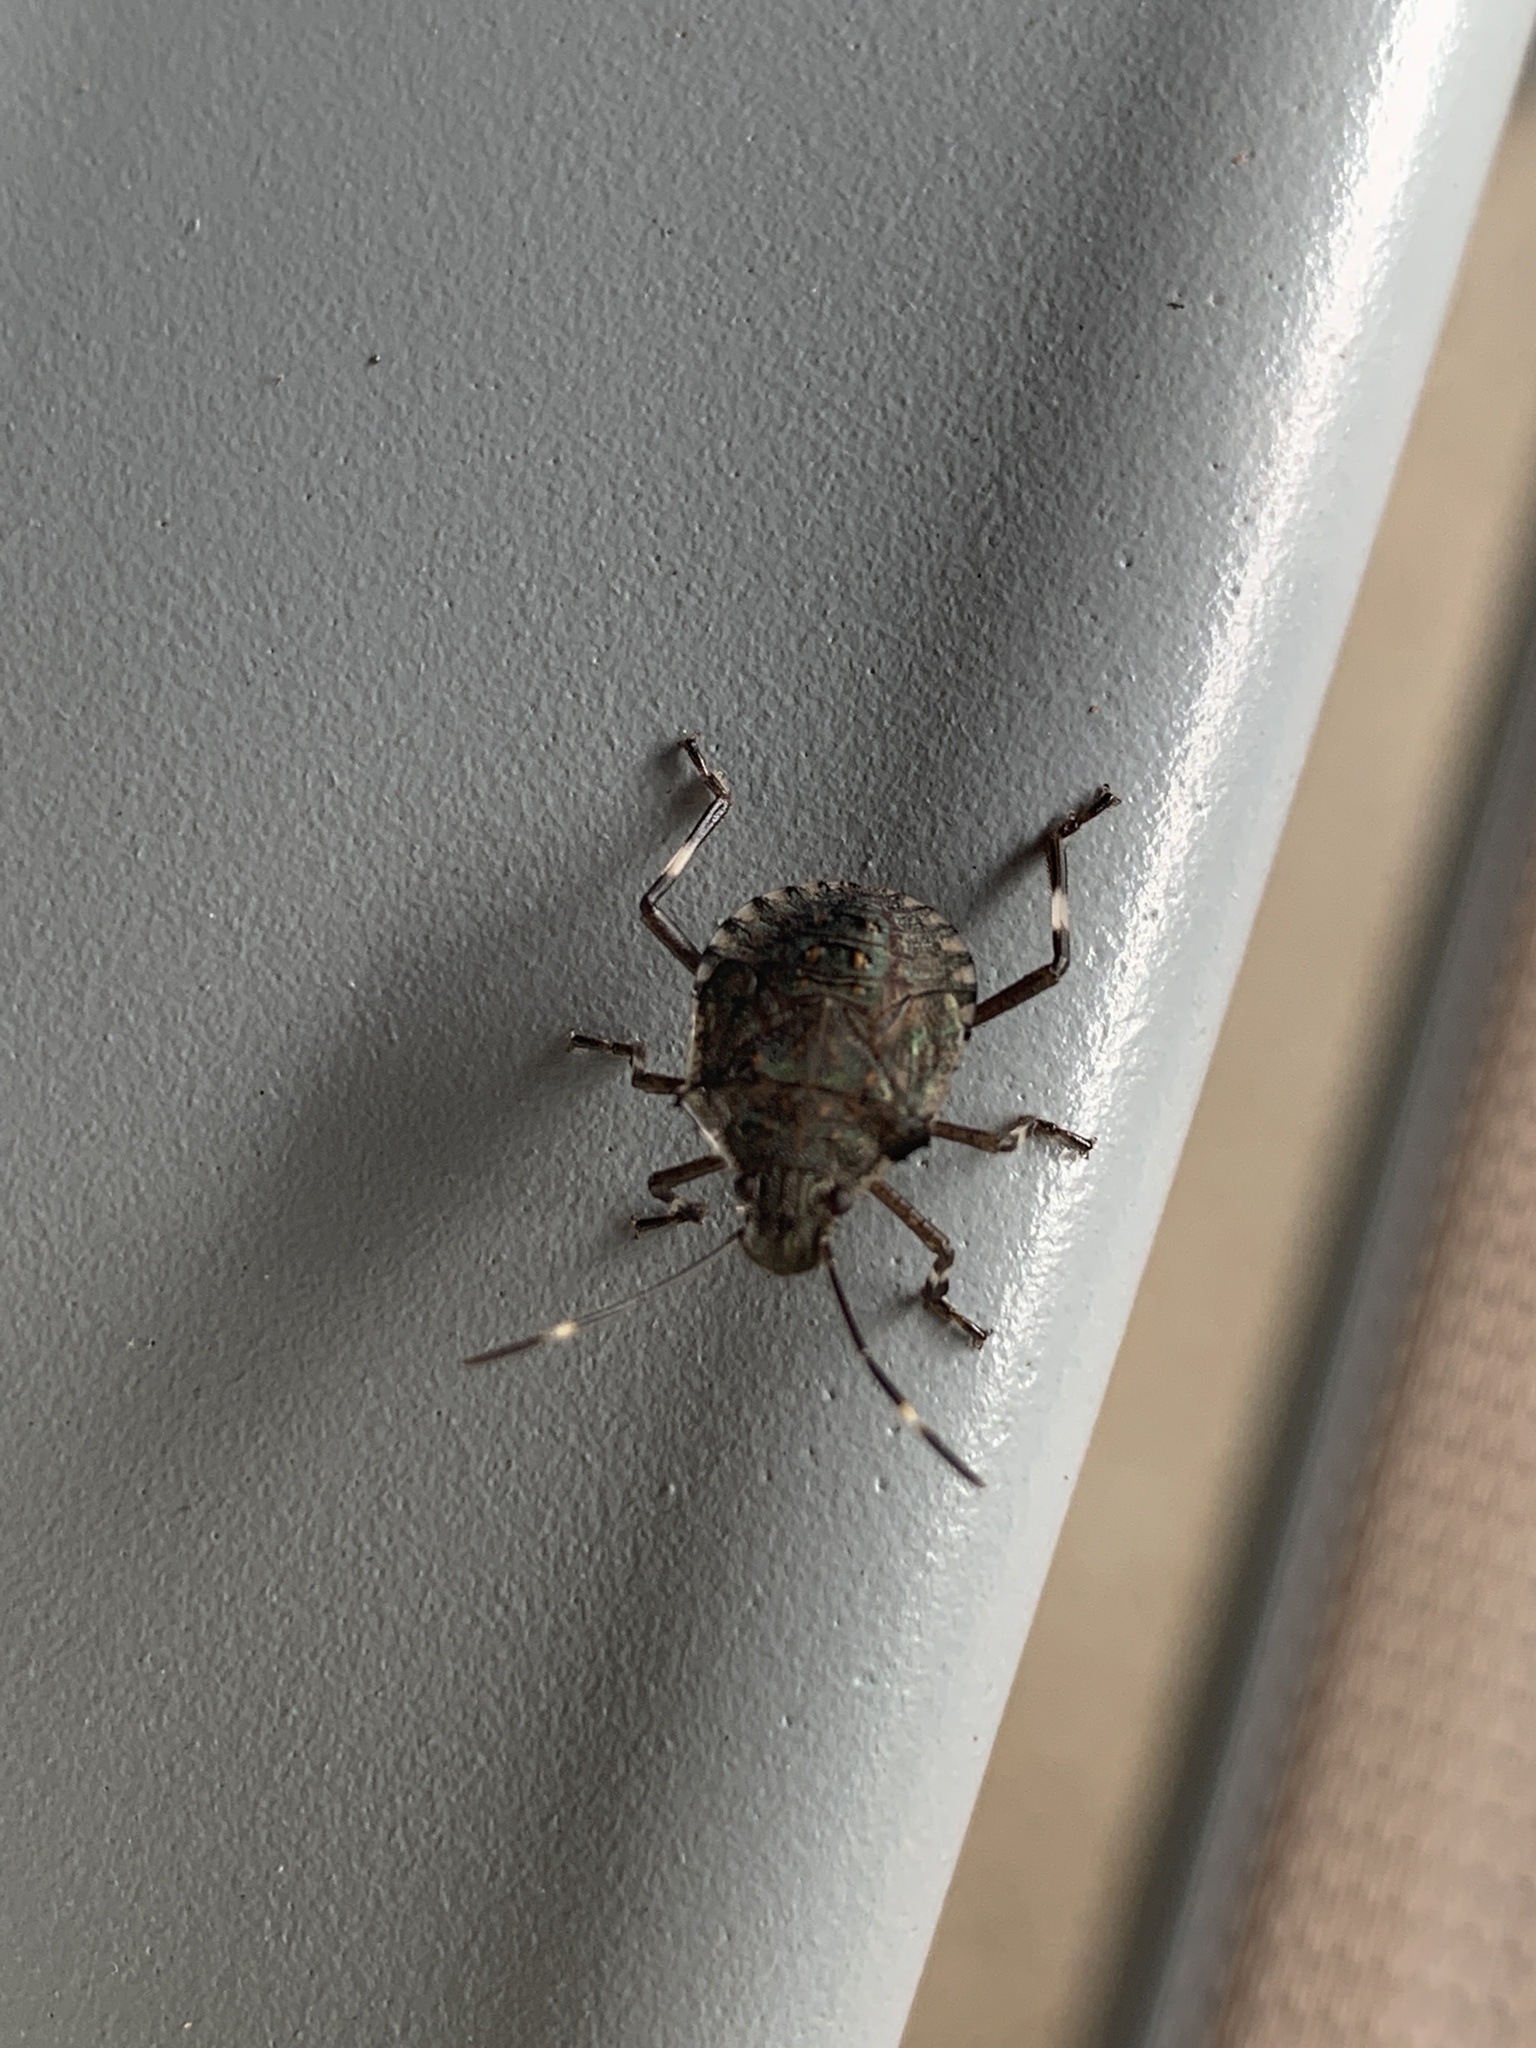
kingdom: Animalia
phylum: Arthropoda
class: Insecta
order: Hemiptera
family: Pentatomidae
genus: Halyomorpha
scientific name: Halyomorpha halys
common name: Brown marmorated stink bug
